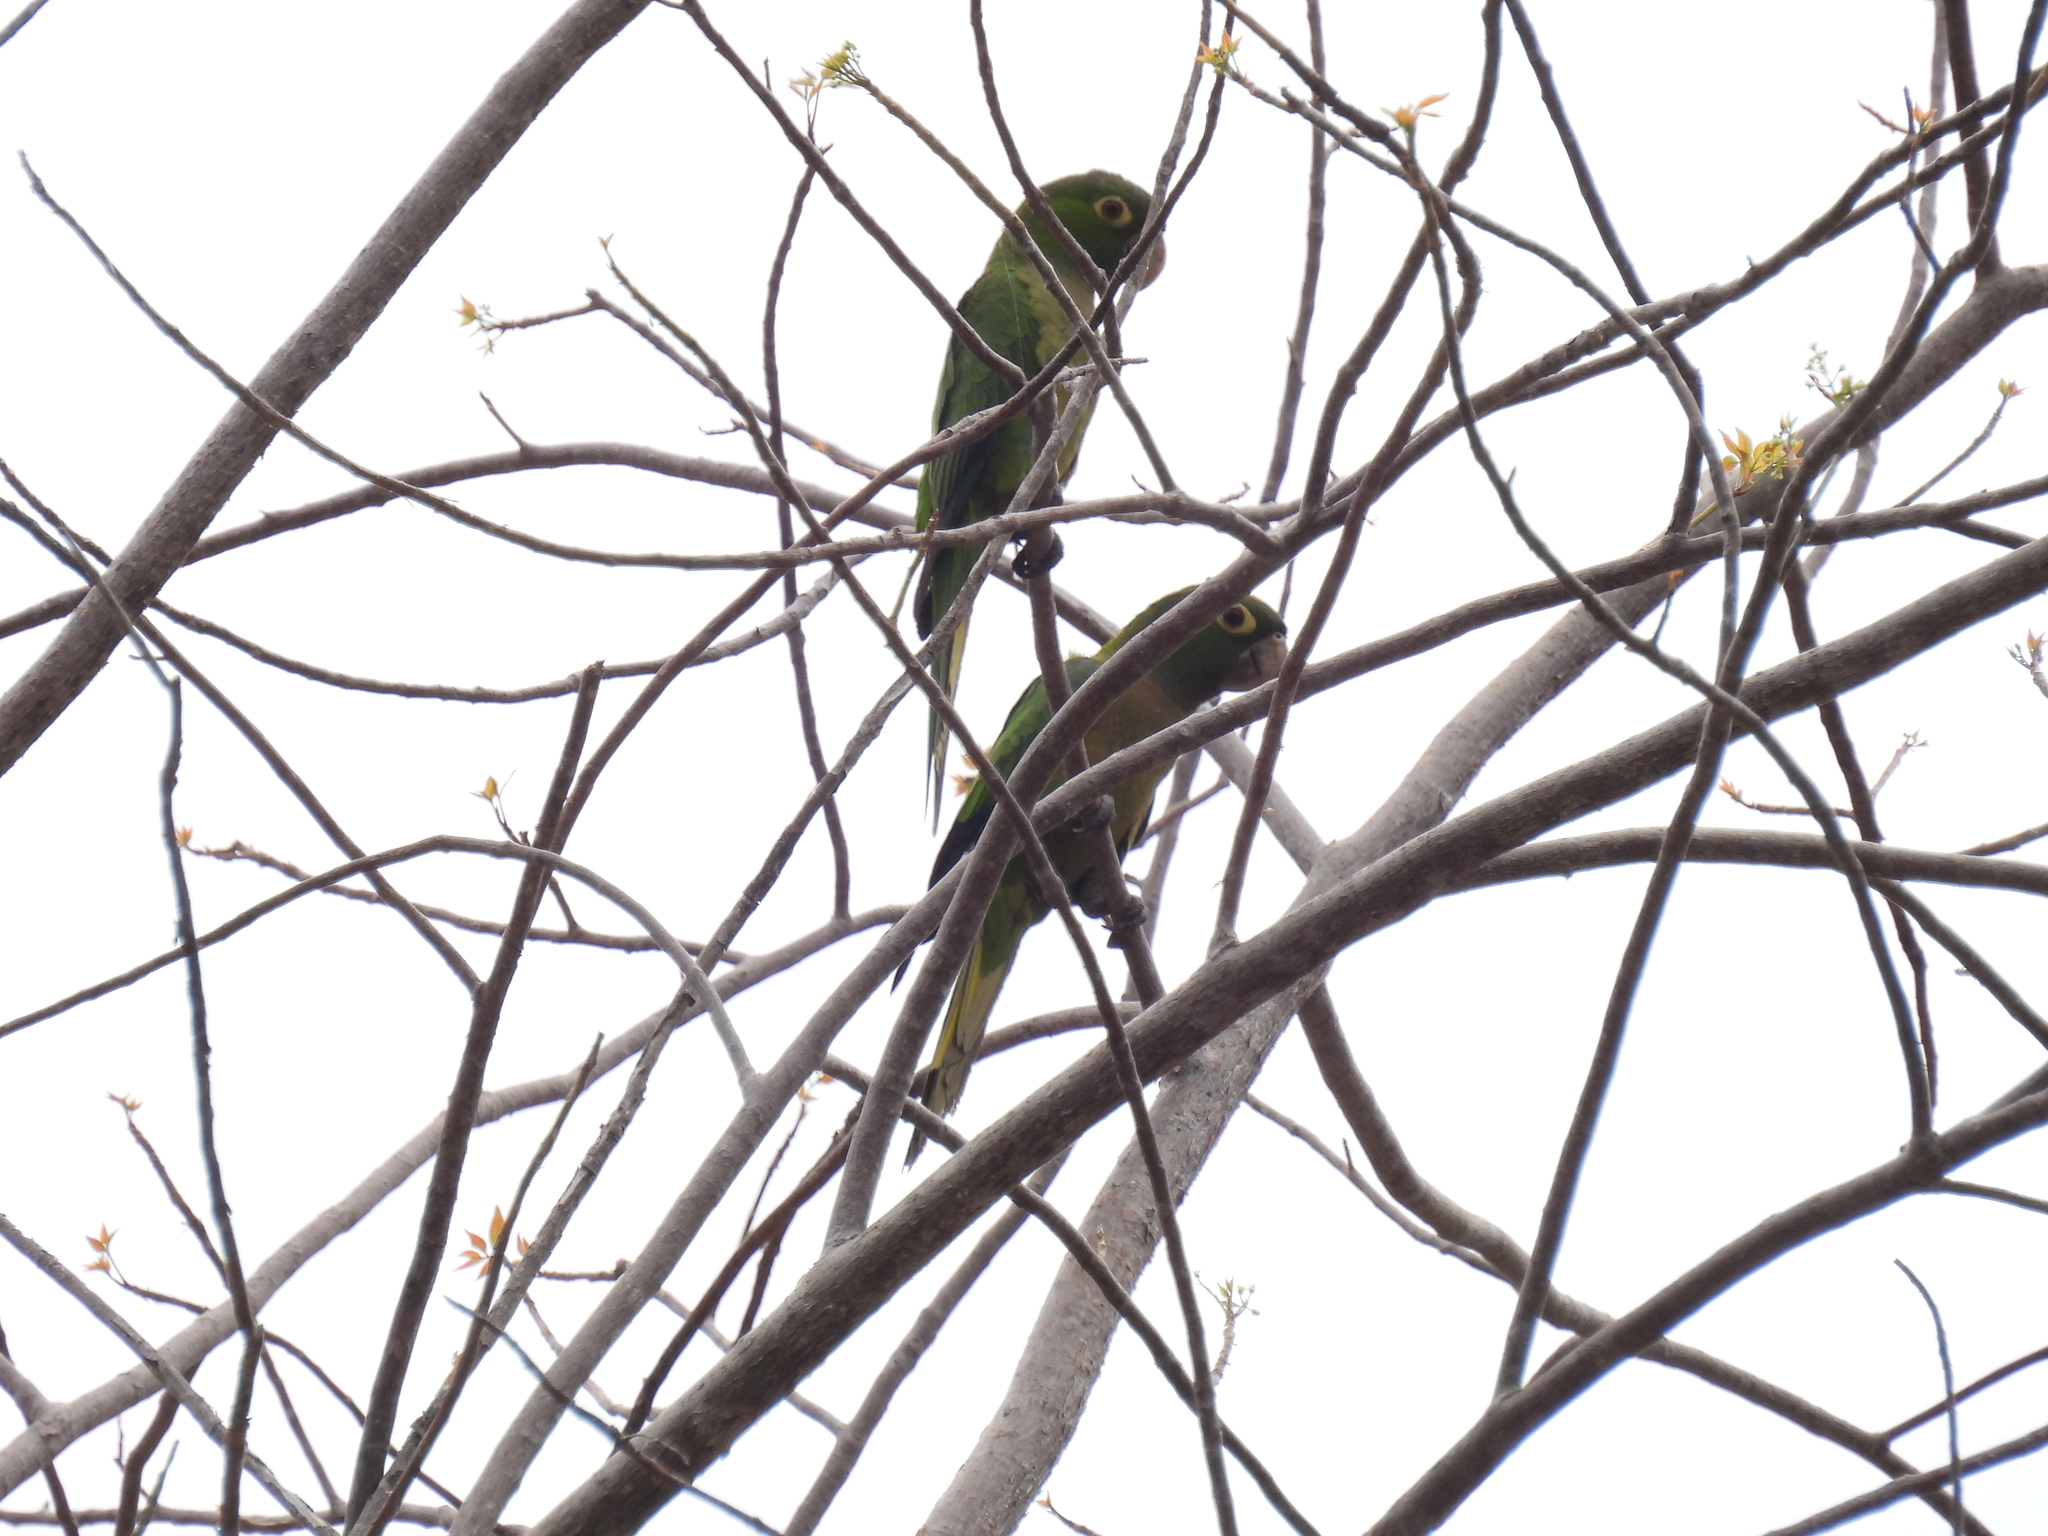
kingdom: Animalia
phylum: Chordata
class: Aves
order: Psittaciformes
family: Psittacidae
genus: Aratinga
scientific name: Aratinga nana
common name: Olive-throated parakeet
